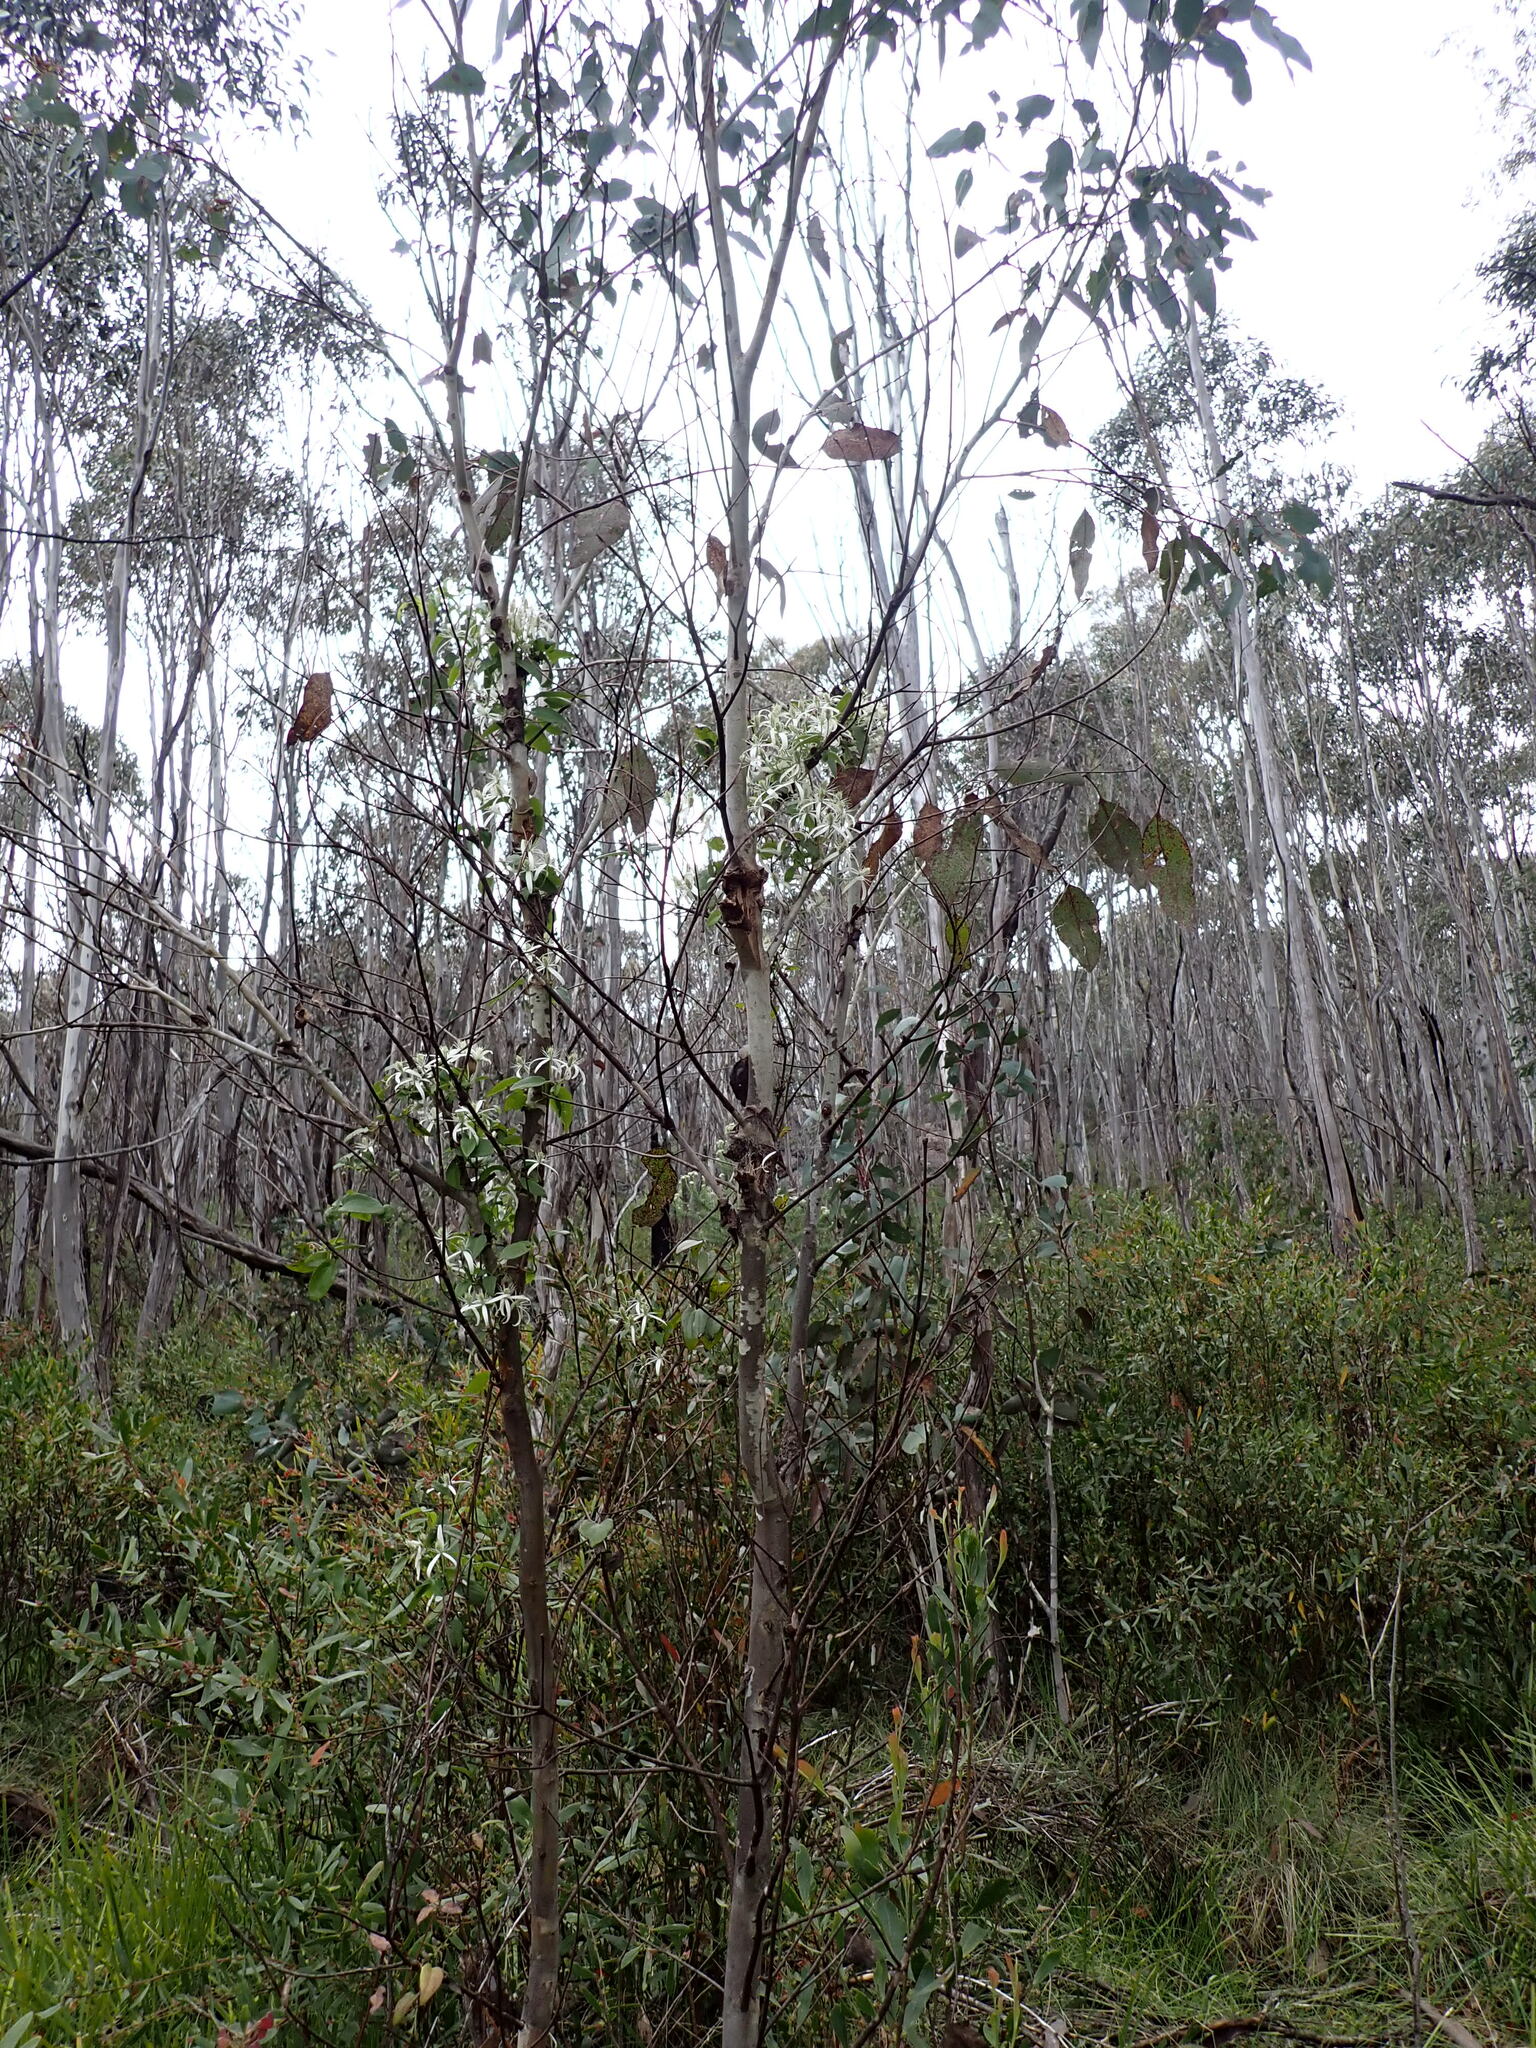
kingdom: Plantae
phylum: Tracheophyta
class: Magnoliopsida
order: Ranunculales
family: Ranunculaceae
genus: Clematis
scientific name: Clematis aristata
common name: Mountain clematis
